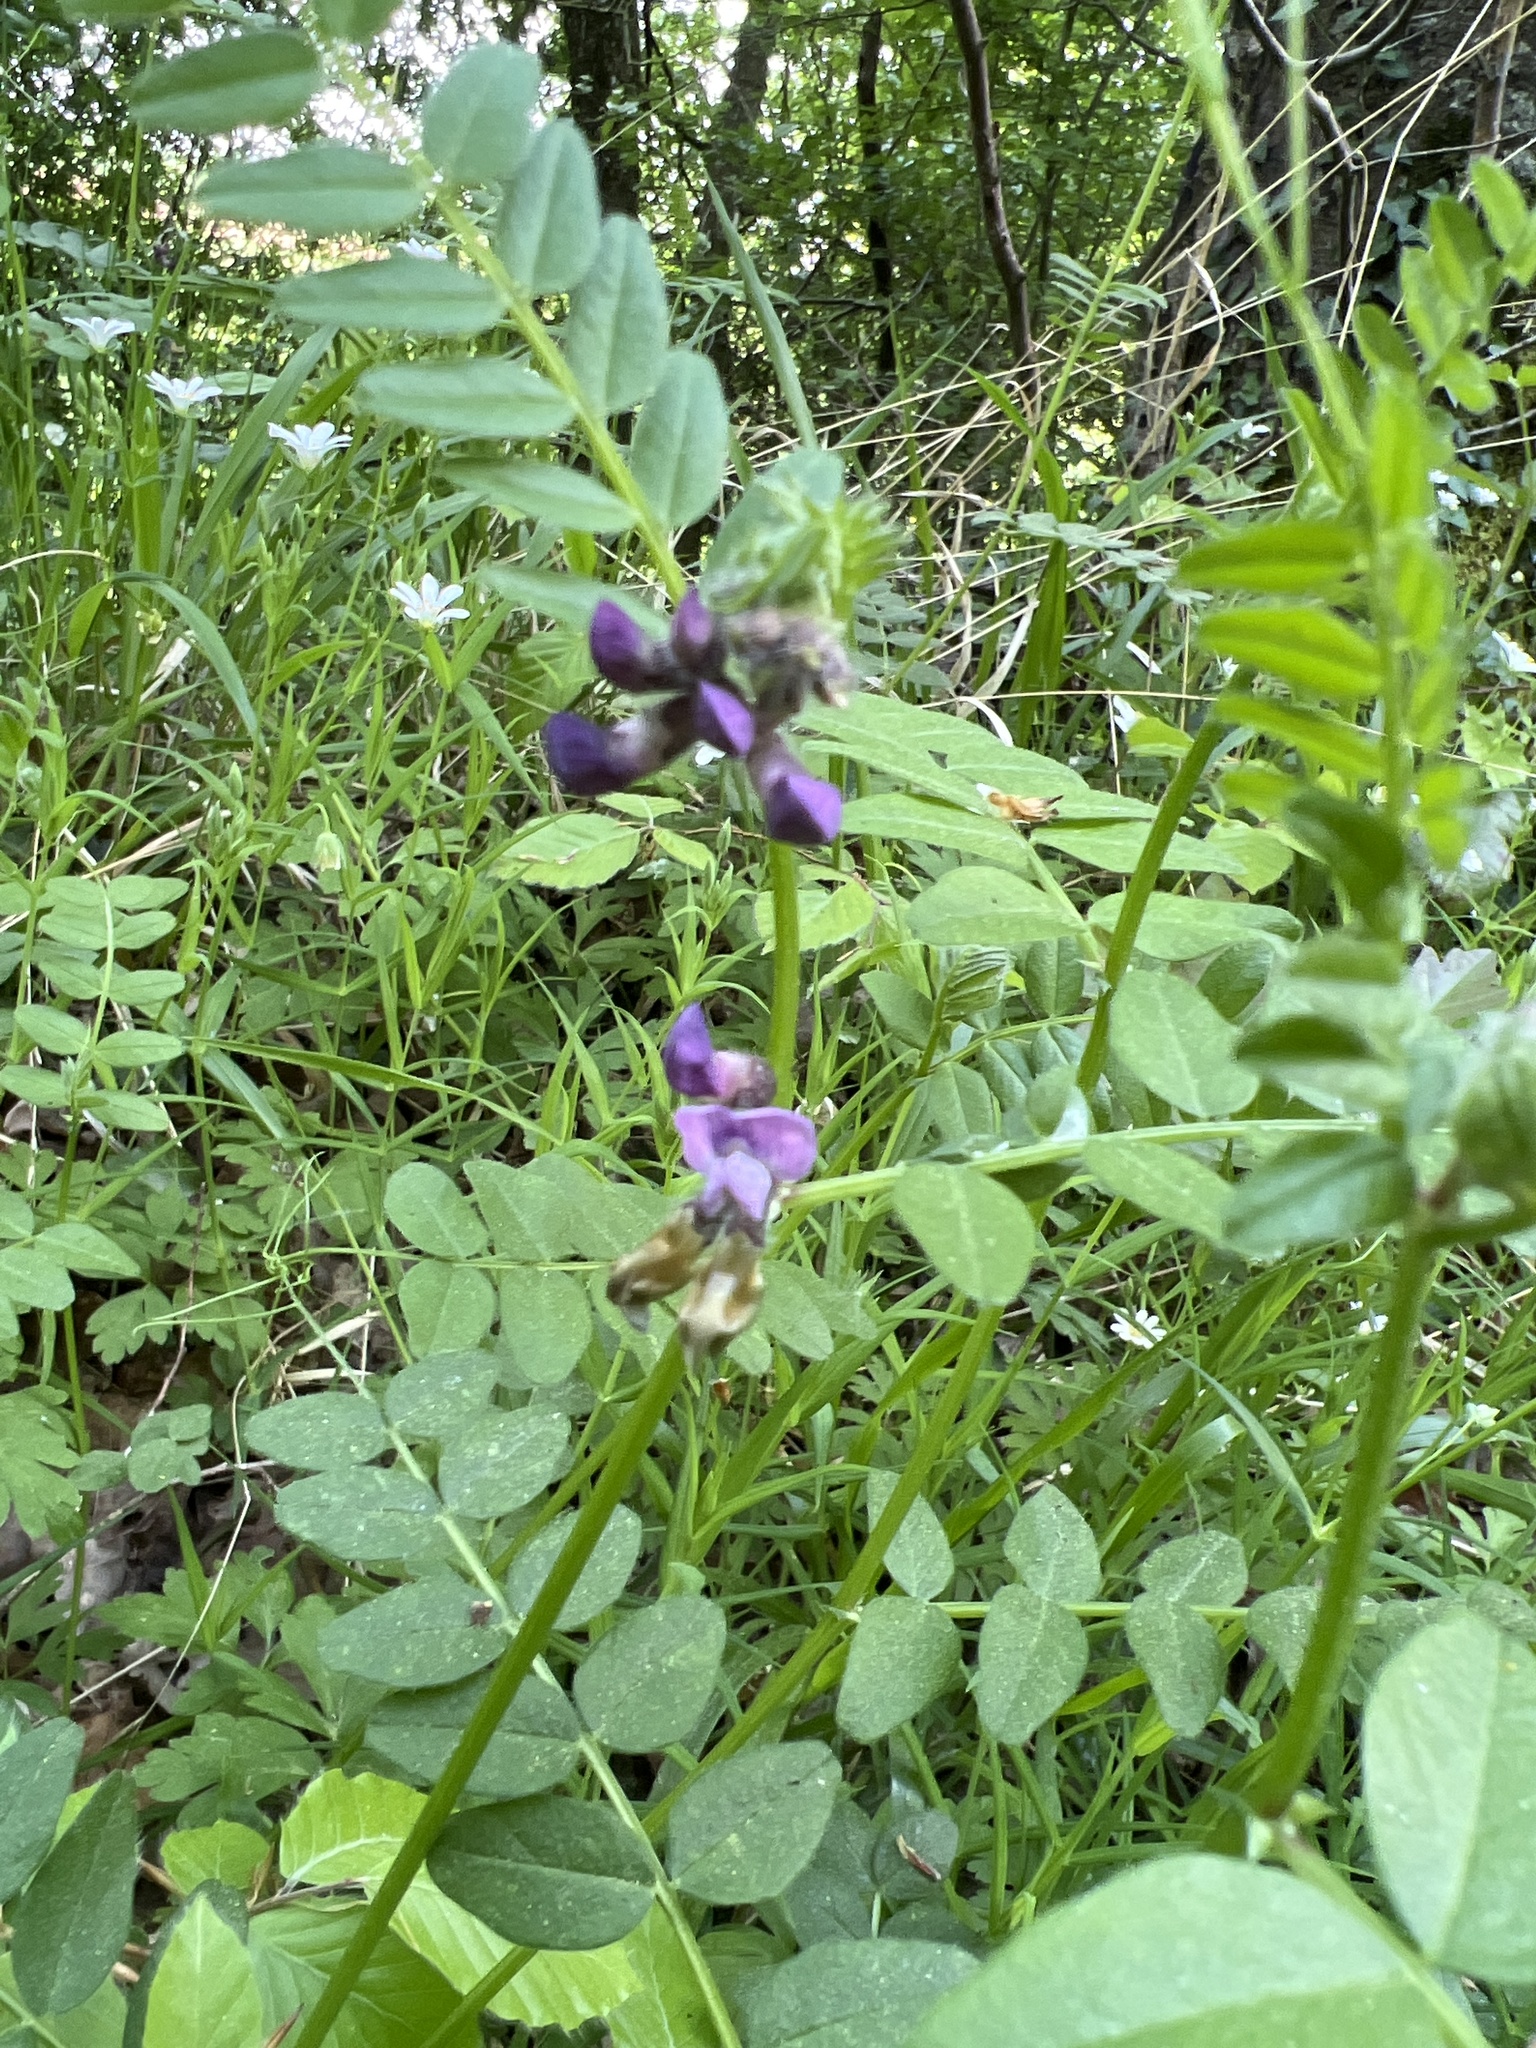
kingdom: Plantae
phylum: Tracheophyta
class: Magnoliopsida
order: Fabales
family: Fabaceae
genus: Vicia
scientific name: Vicia sepium
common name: Bush vetch
